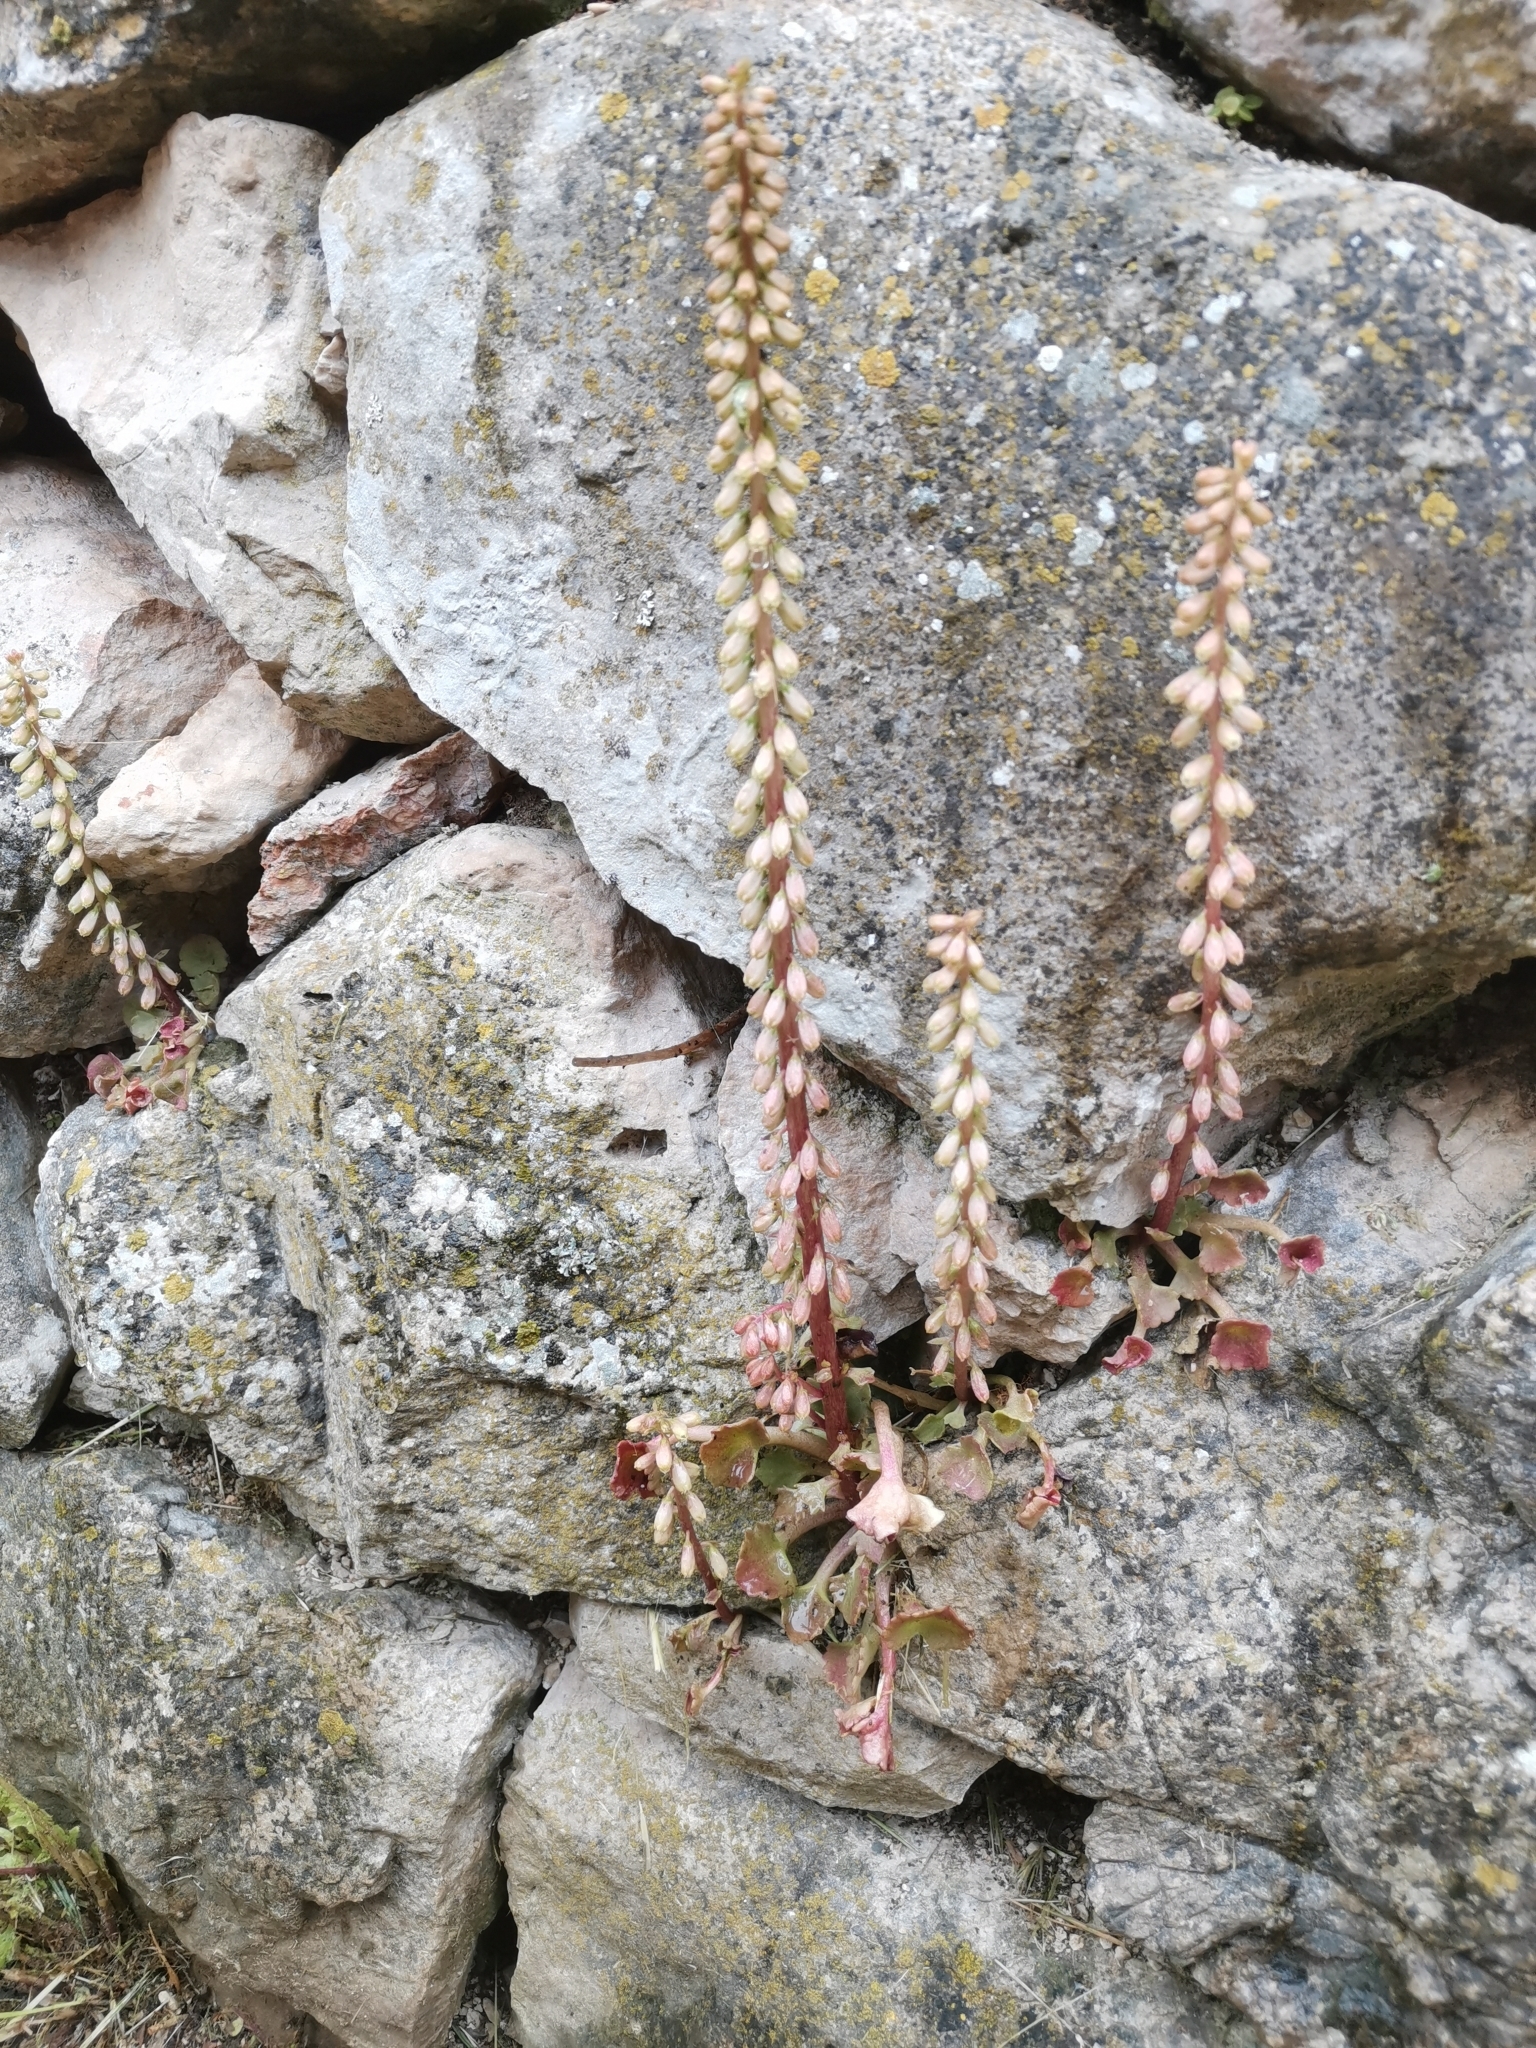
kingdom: Plantae
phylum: Tracheophyta
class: Magnoliopsida
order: Saxifragales
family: Crassulaceae
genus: Umbilicus
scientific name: Umbilicus rupestris
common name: Navelwort
